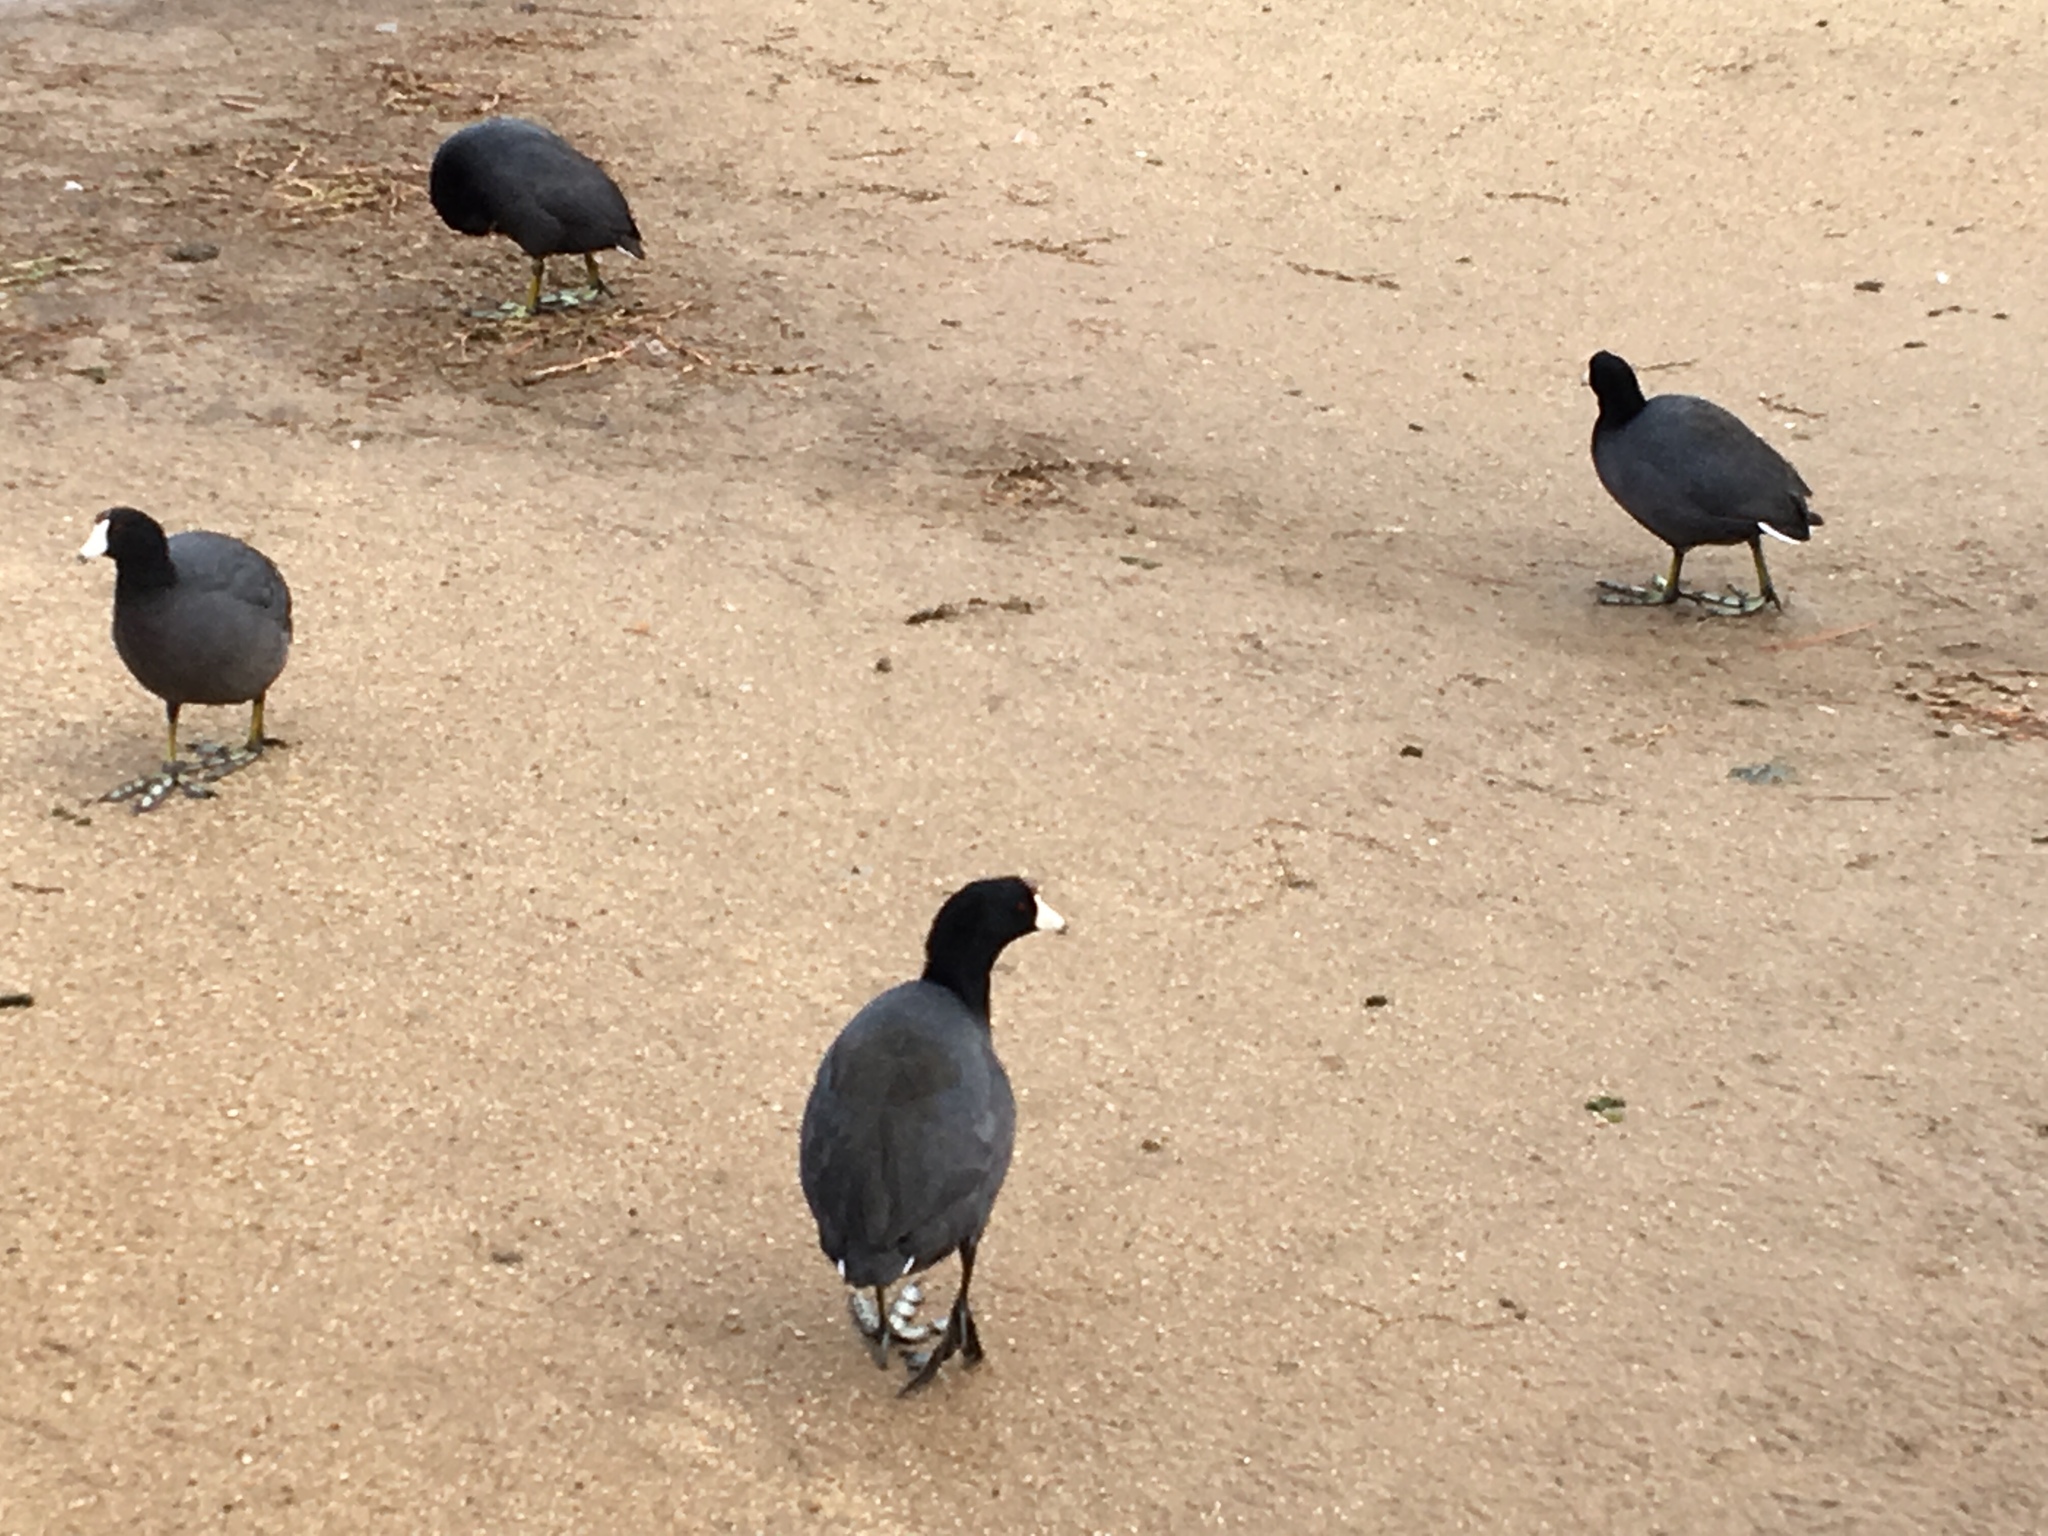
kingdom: Animalia
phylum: Chordata
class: Aves
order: Gruiformes
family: Rallidae
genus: Fulica
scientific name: Fulica americana
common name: American coot
